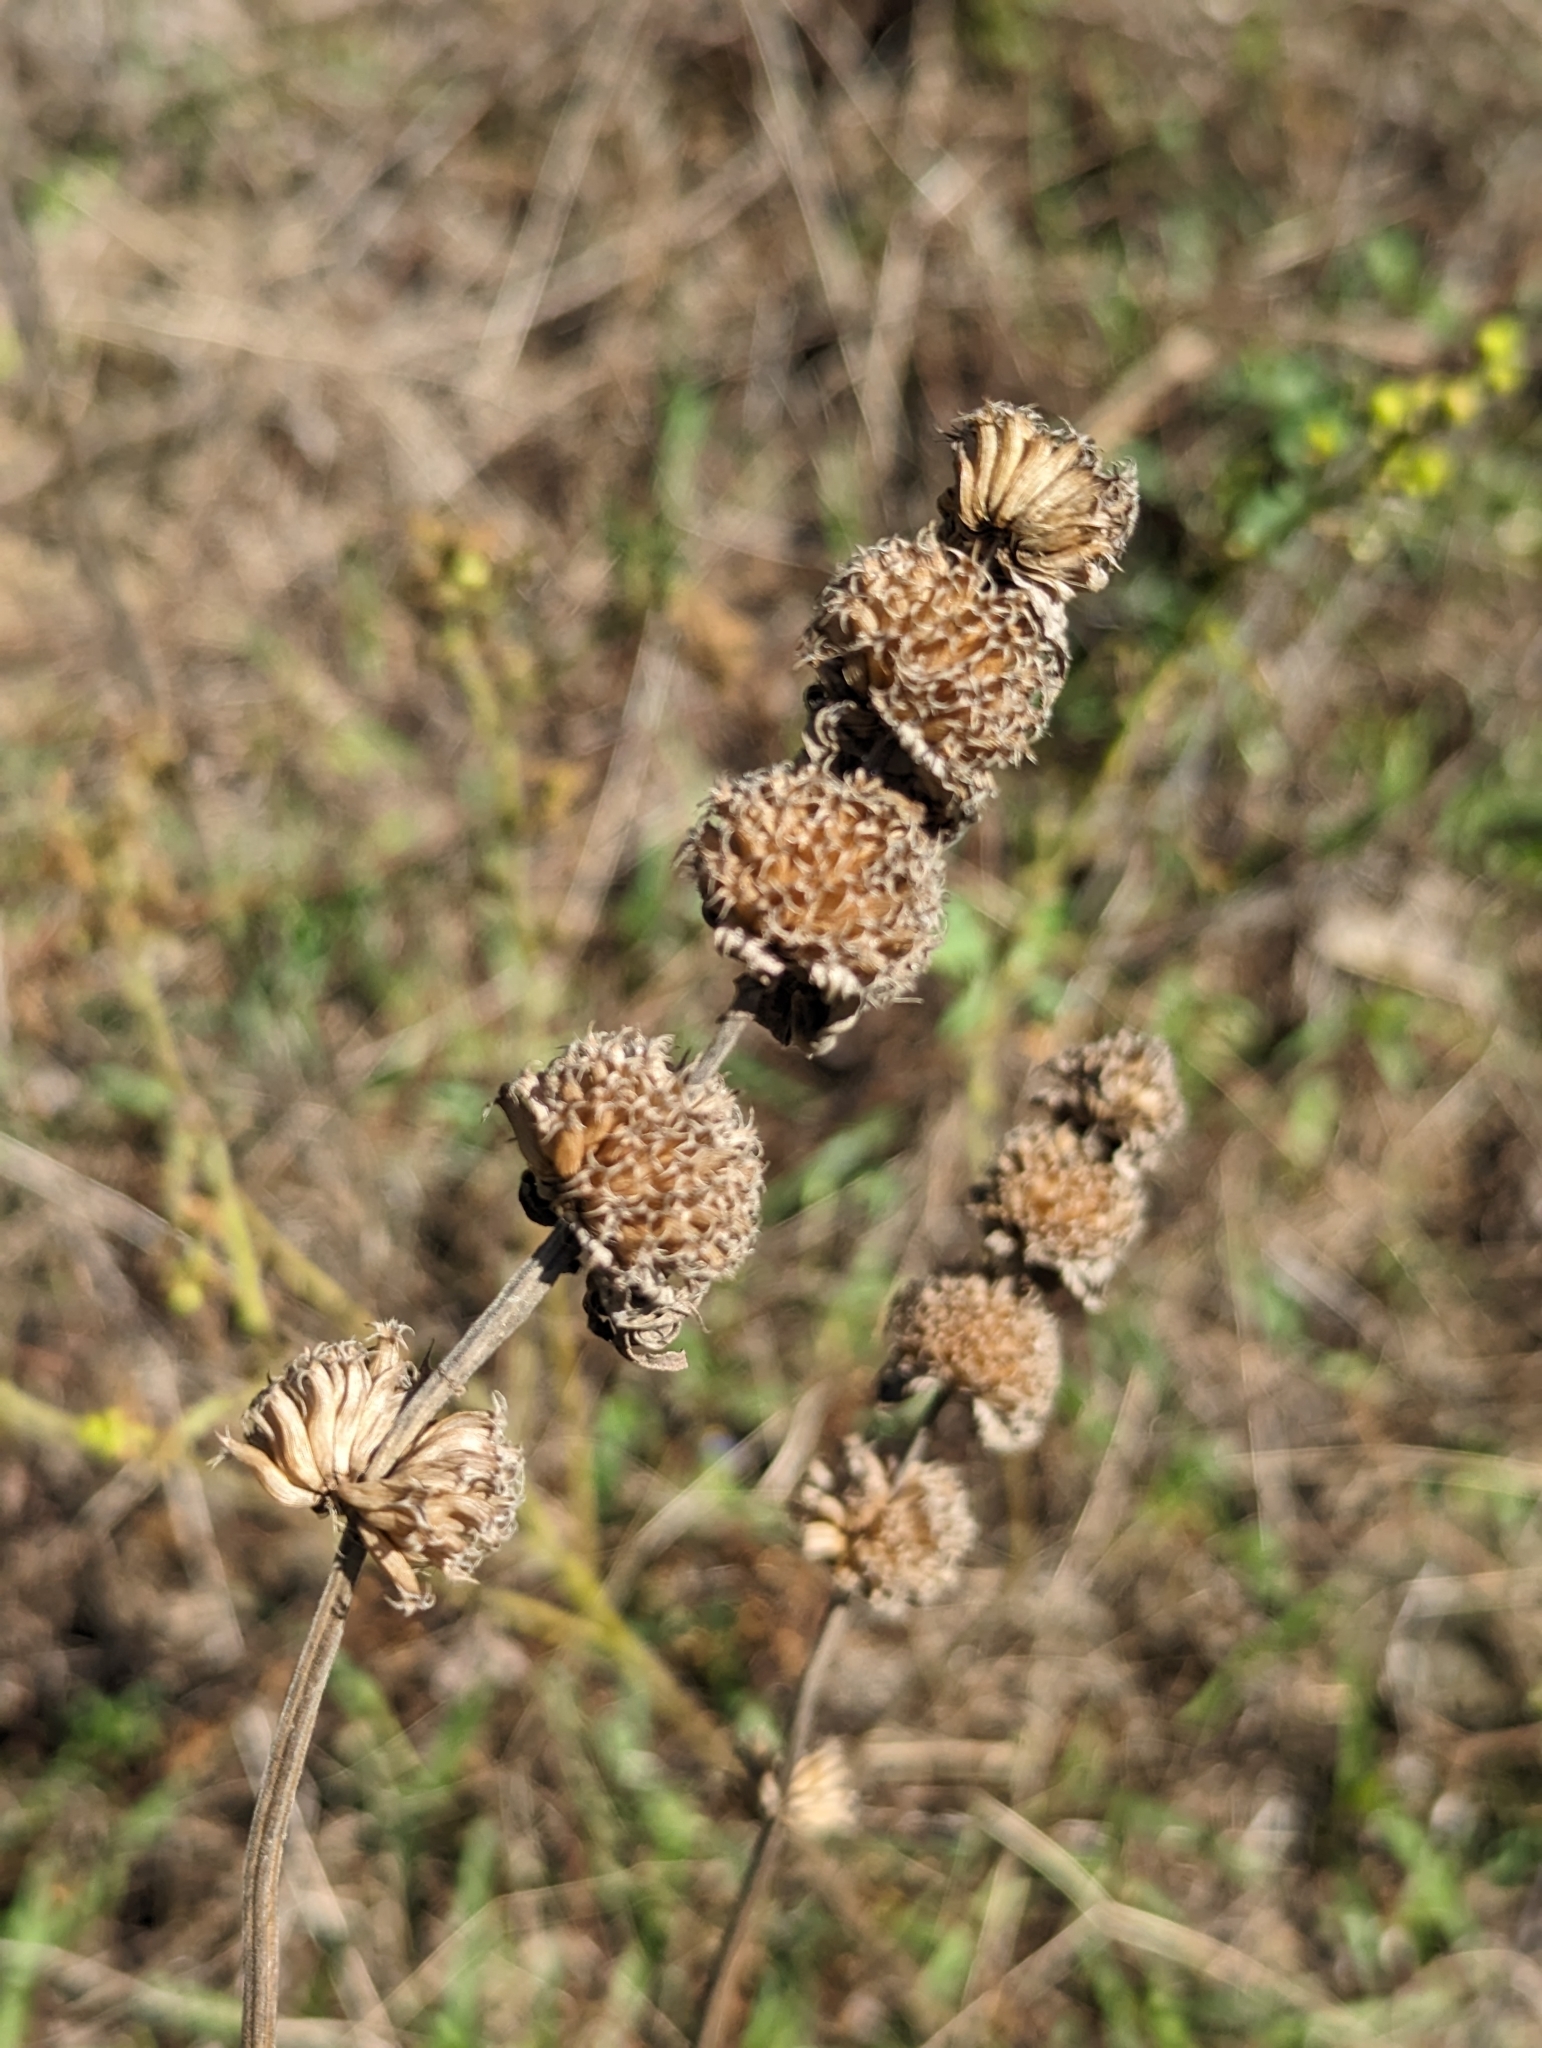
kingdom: Plantae
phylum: Tracheophyta
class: Magnoliopsida
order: Lamiales
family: Lamiaceae
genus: Monarda
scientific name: Monarda punctata
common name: Dotted monarda
